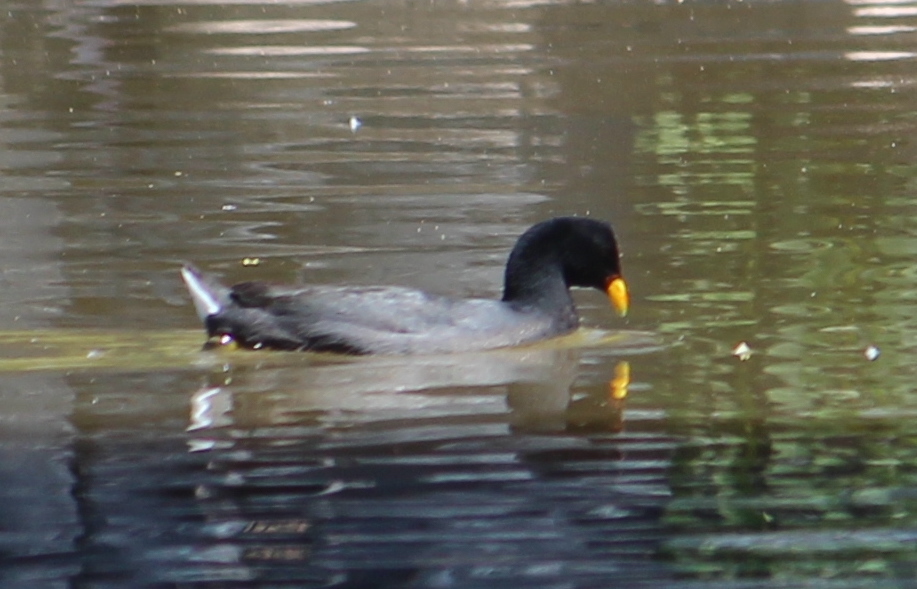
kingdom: Animalia
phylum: Chordata
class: Aves
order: Gruiformes
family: Rallidae
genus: Fulica
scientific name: Fulica rufifrons
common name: Red-fronted coot
